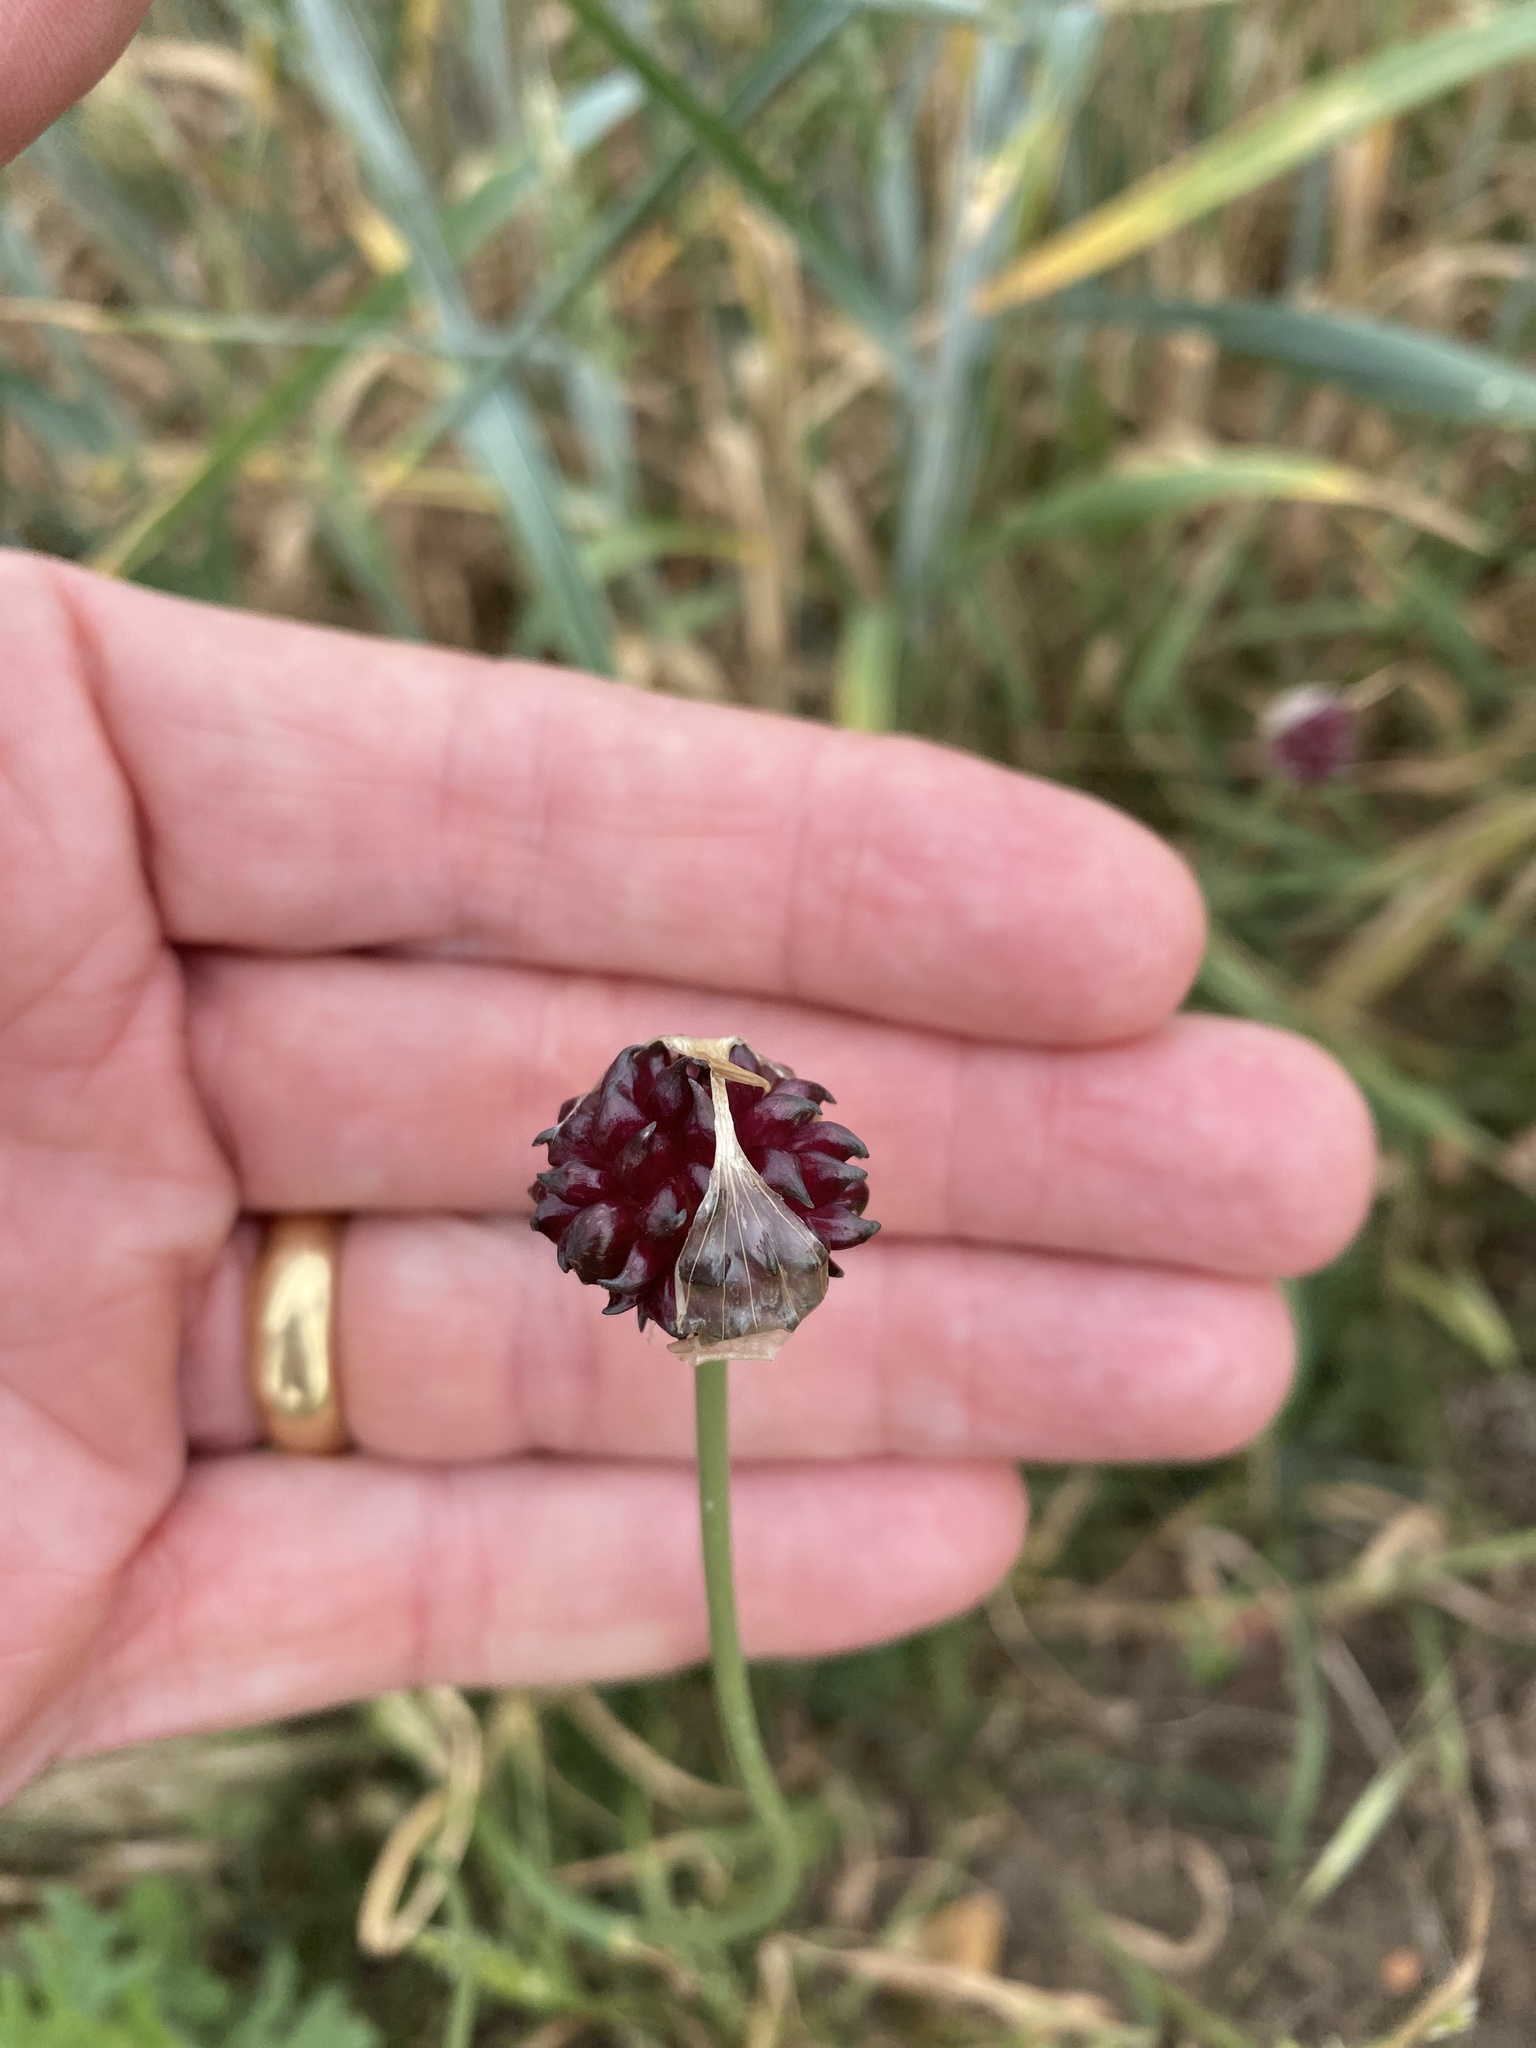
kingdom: Plantae
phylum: Tracheophyta
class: Liliopsida
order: Asparagales
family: Amaryllidaceae
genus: Allium
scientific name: Allium vineale
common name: Crow garlic
